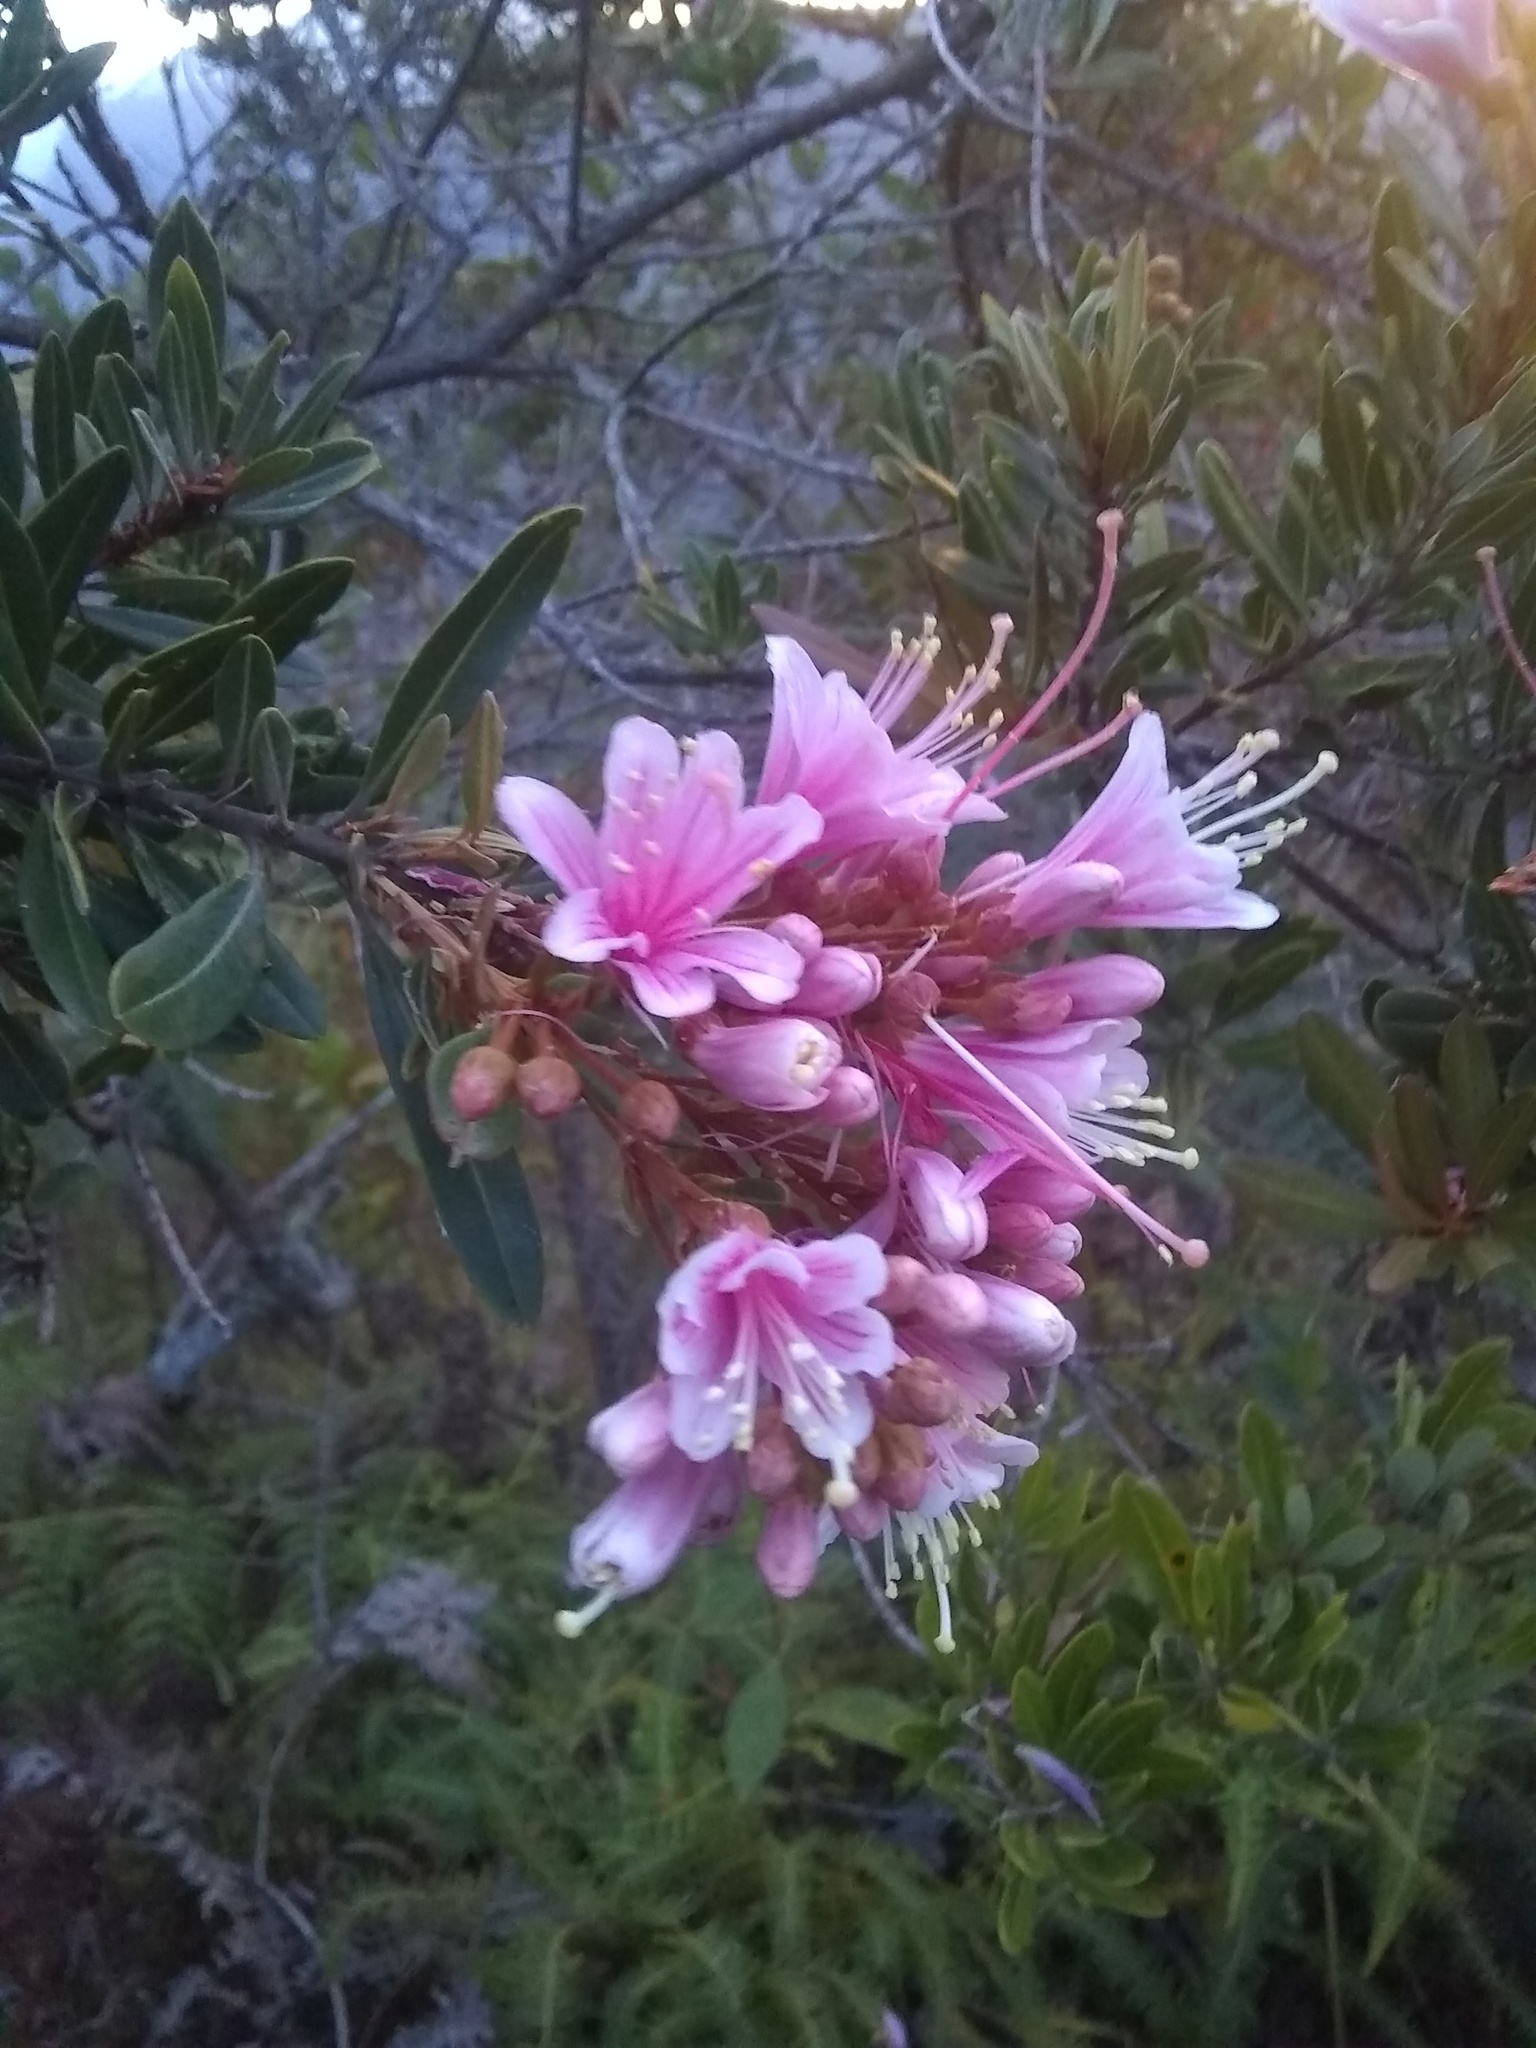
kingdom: Plantae
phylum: Tracheophyta
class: Magnoliopsida
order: Ericales
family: Ericaceae
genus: Bejaria
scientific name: Bejaria aestuans
